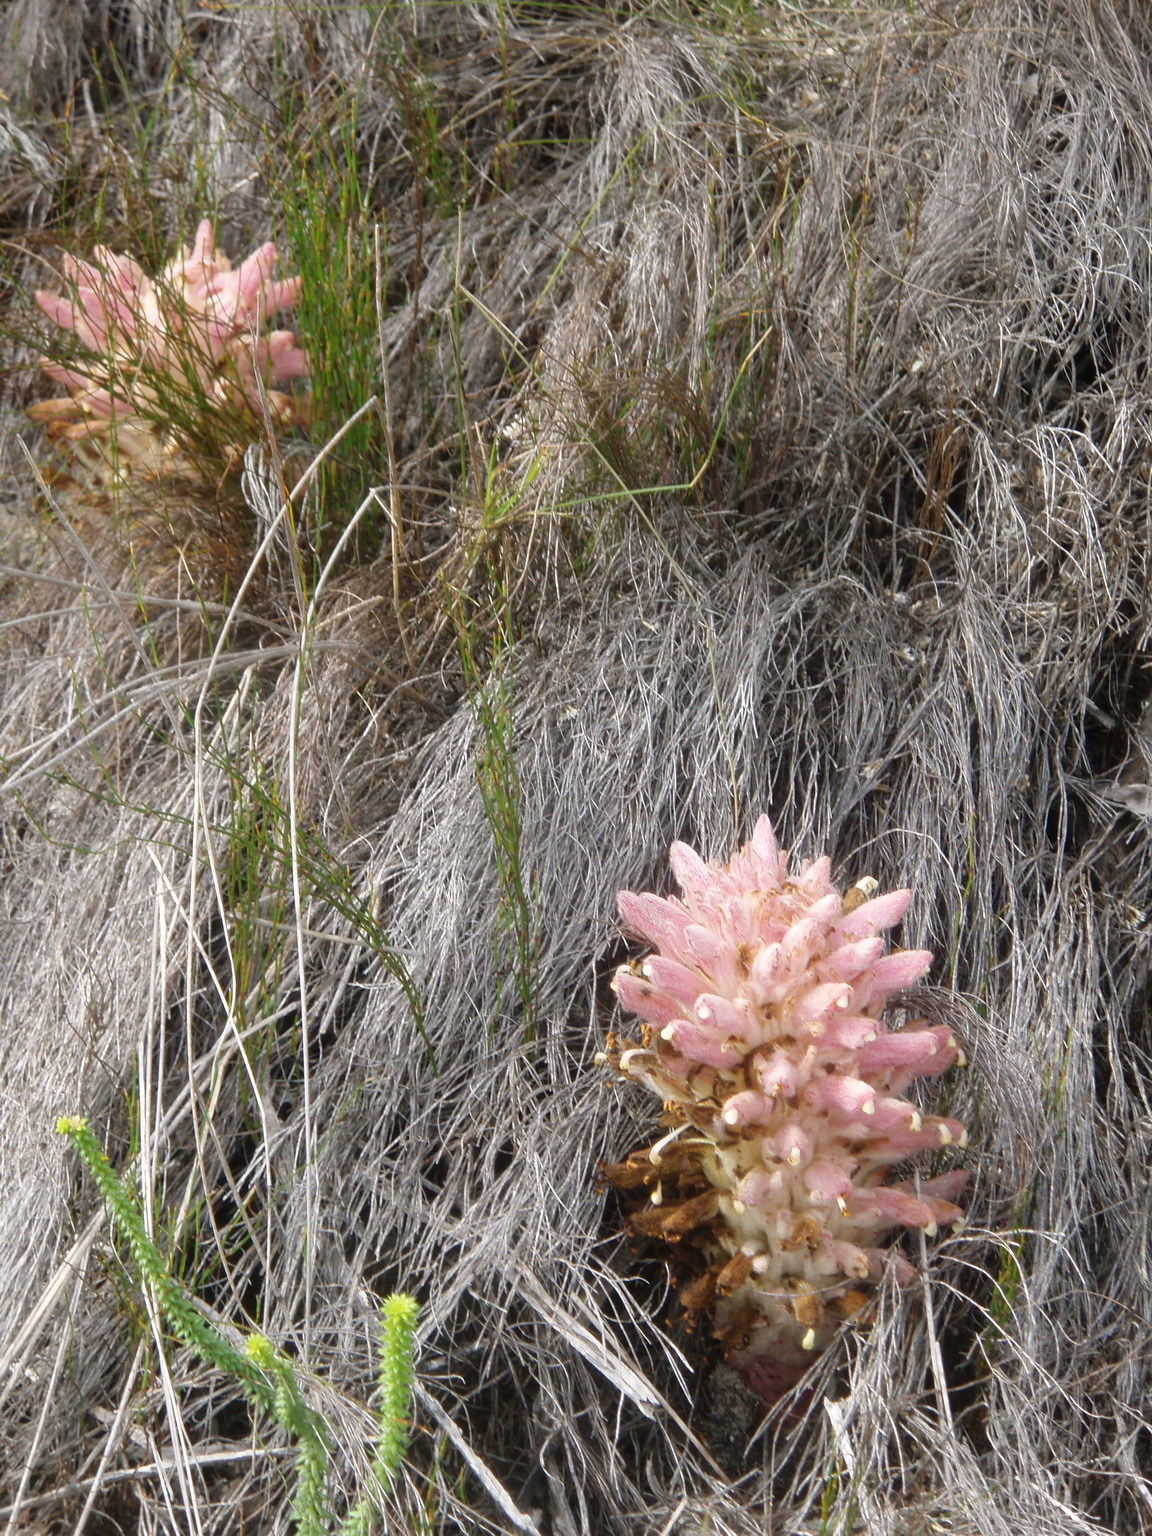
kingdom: Plantae
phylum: Tracheophyta
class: Magnoliopsida
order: Lamiales
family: Orobanchaceae
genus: Hyobanche
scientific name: Hyobanche robusta
